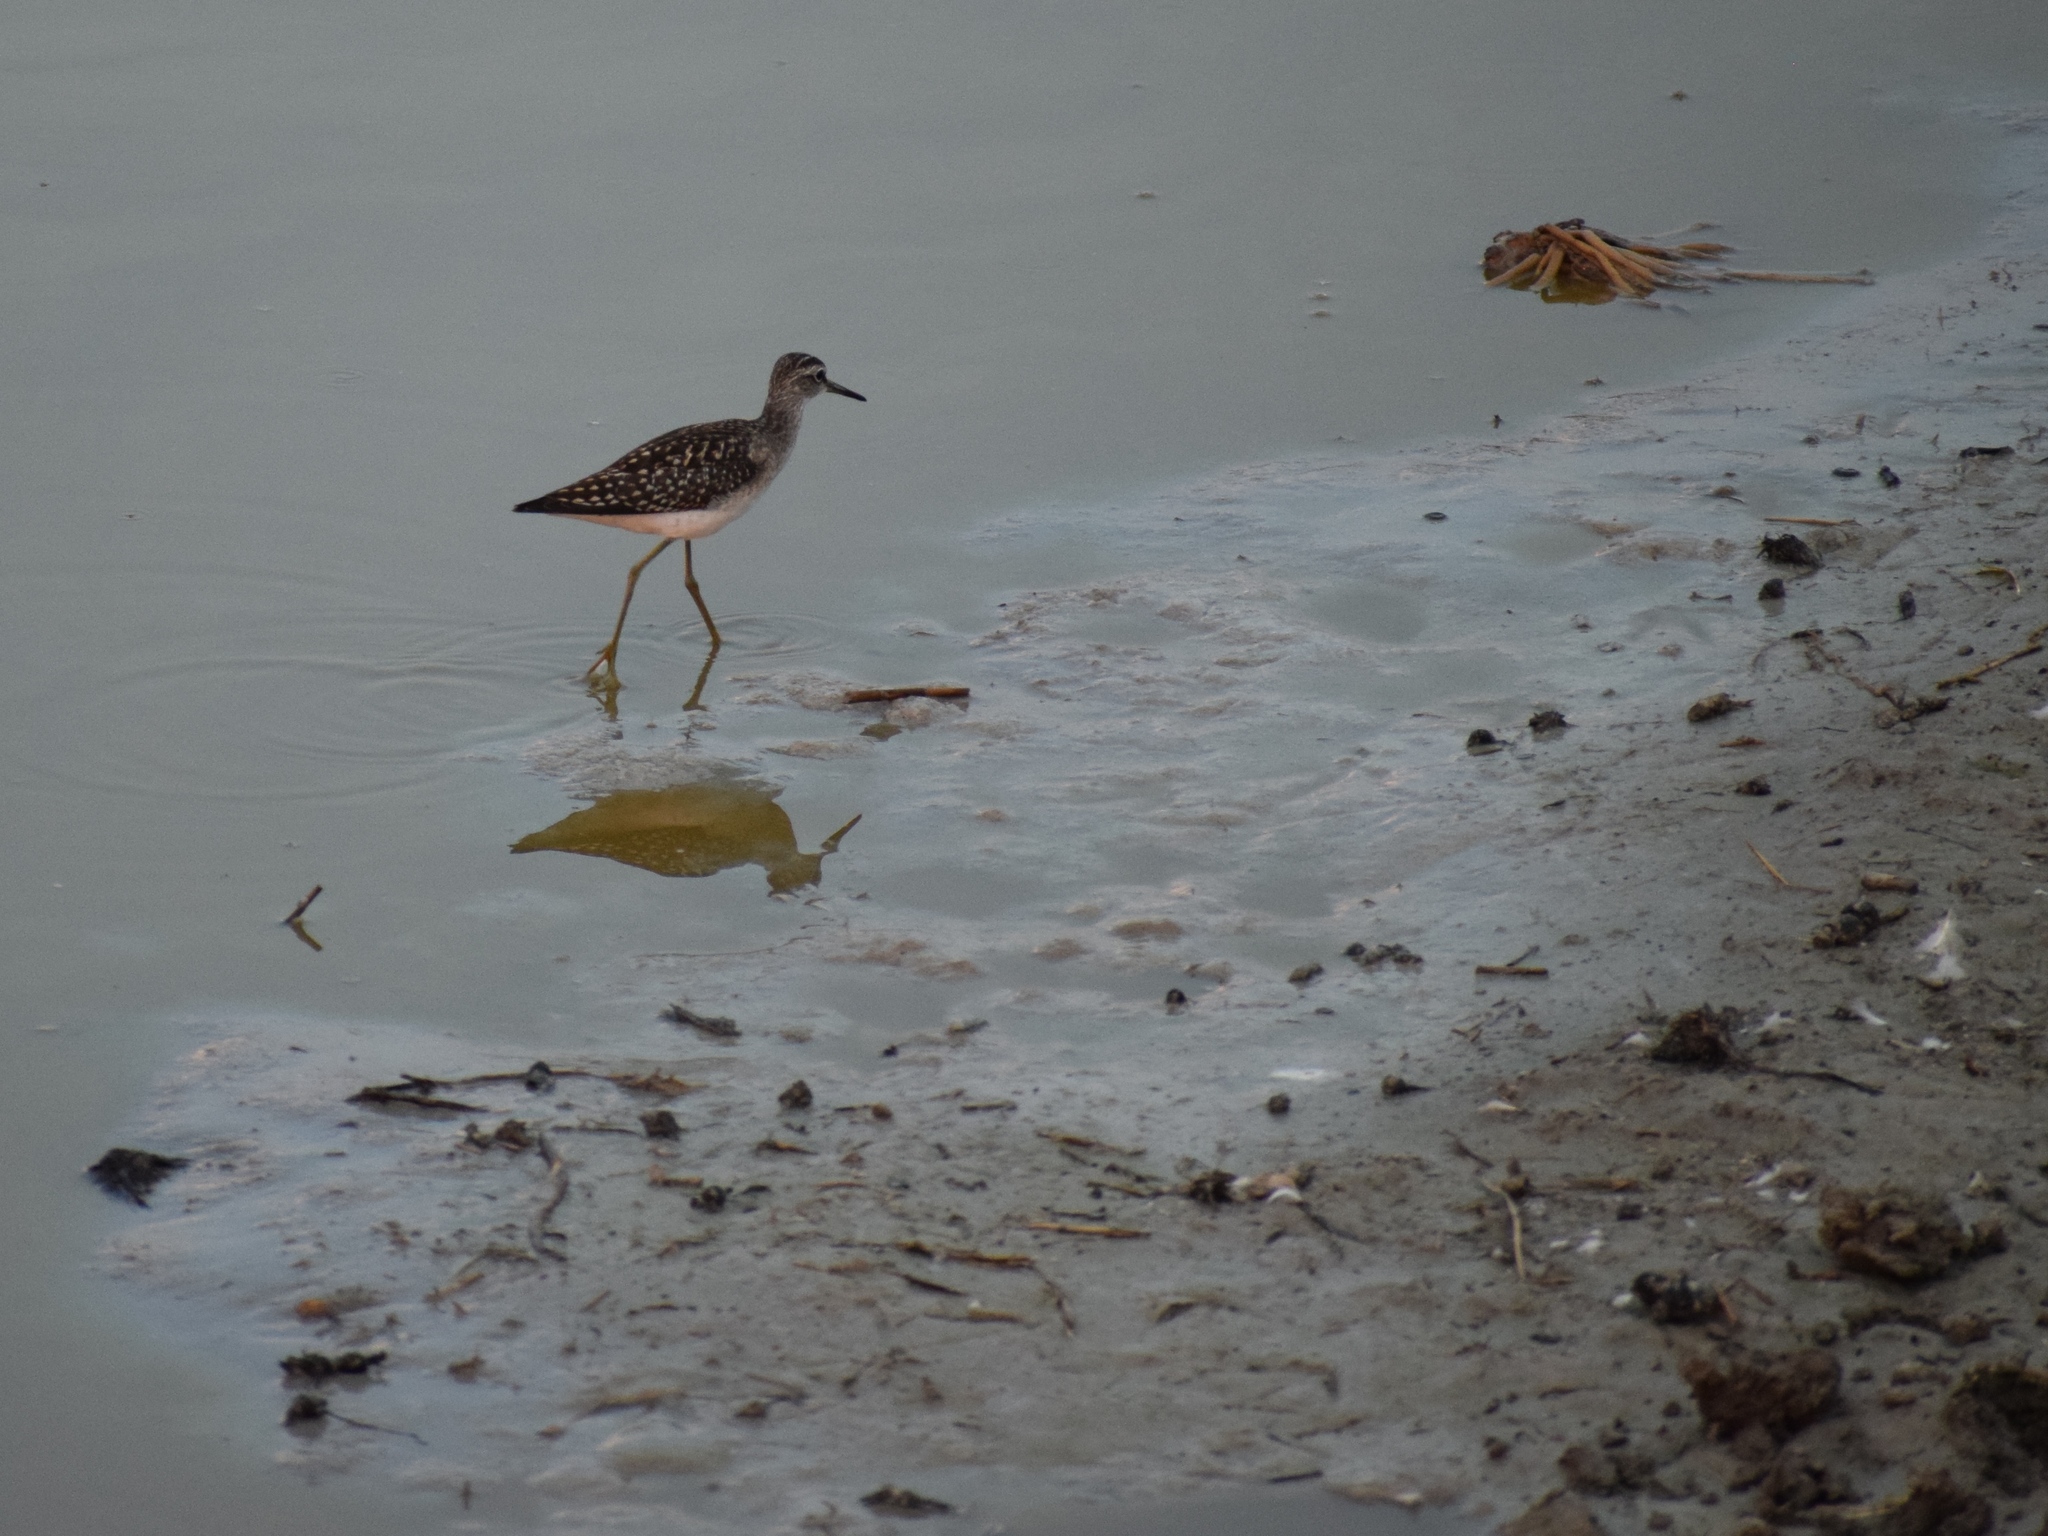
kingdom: Animalia
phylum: Chordata
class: Aves
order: Charadriiformes
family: Scolopacidae
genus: Tringa
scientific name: Tringa glareola
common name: Wood sandpiper
